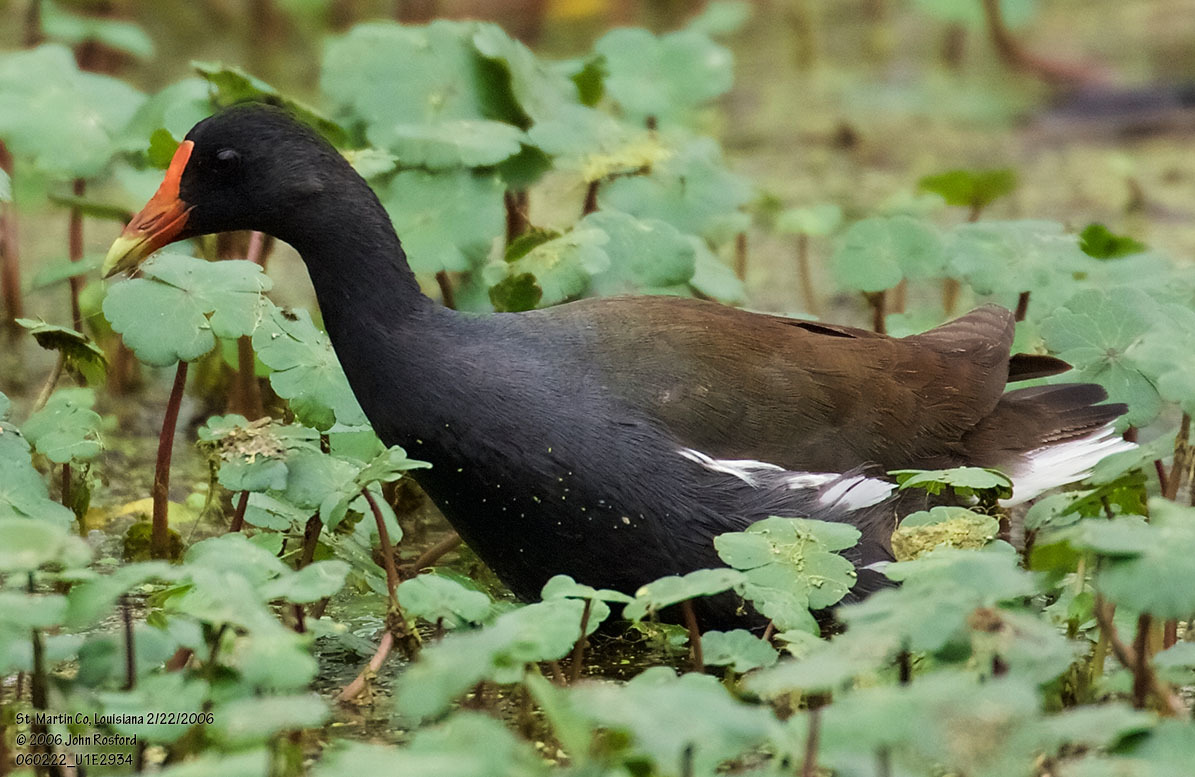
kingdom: Animalia
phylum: Chordata
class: Aves
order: Gruiformes
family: Rallidae
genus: Gallinula
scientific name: Gallinula chloropus
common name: Common moorhen
